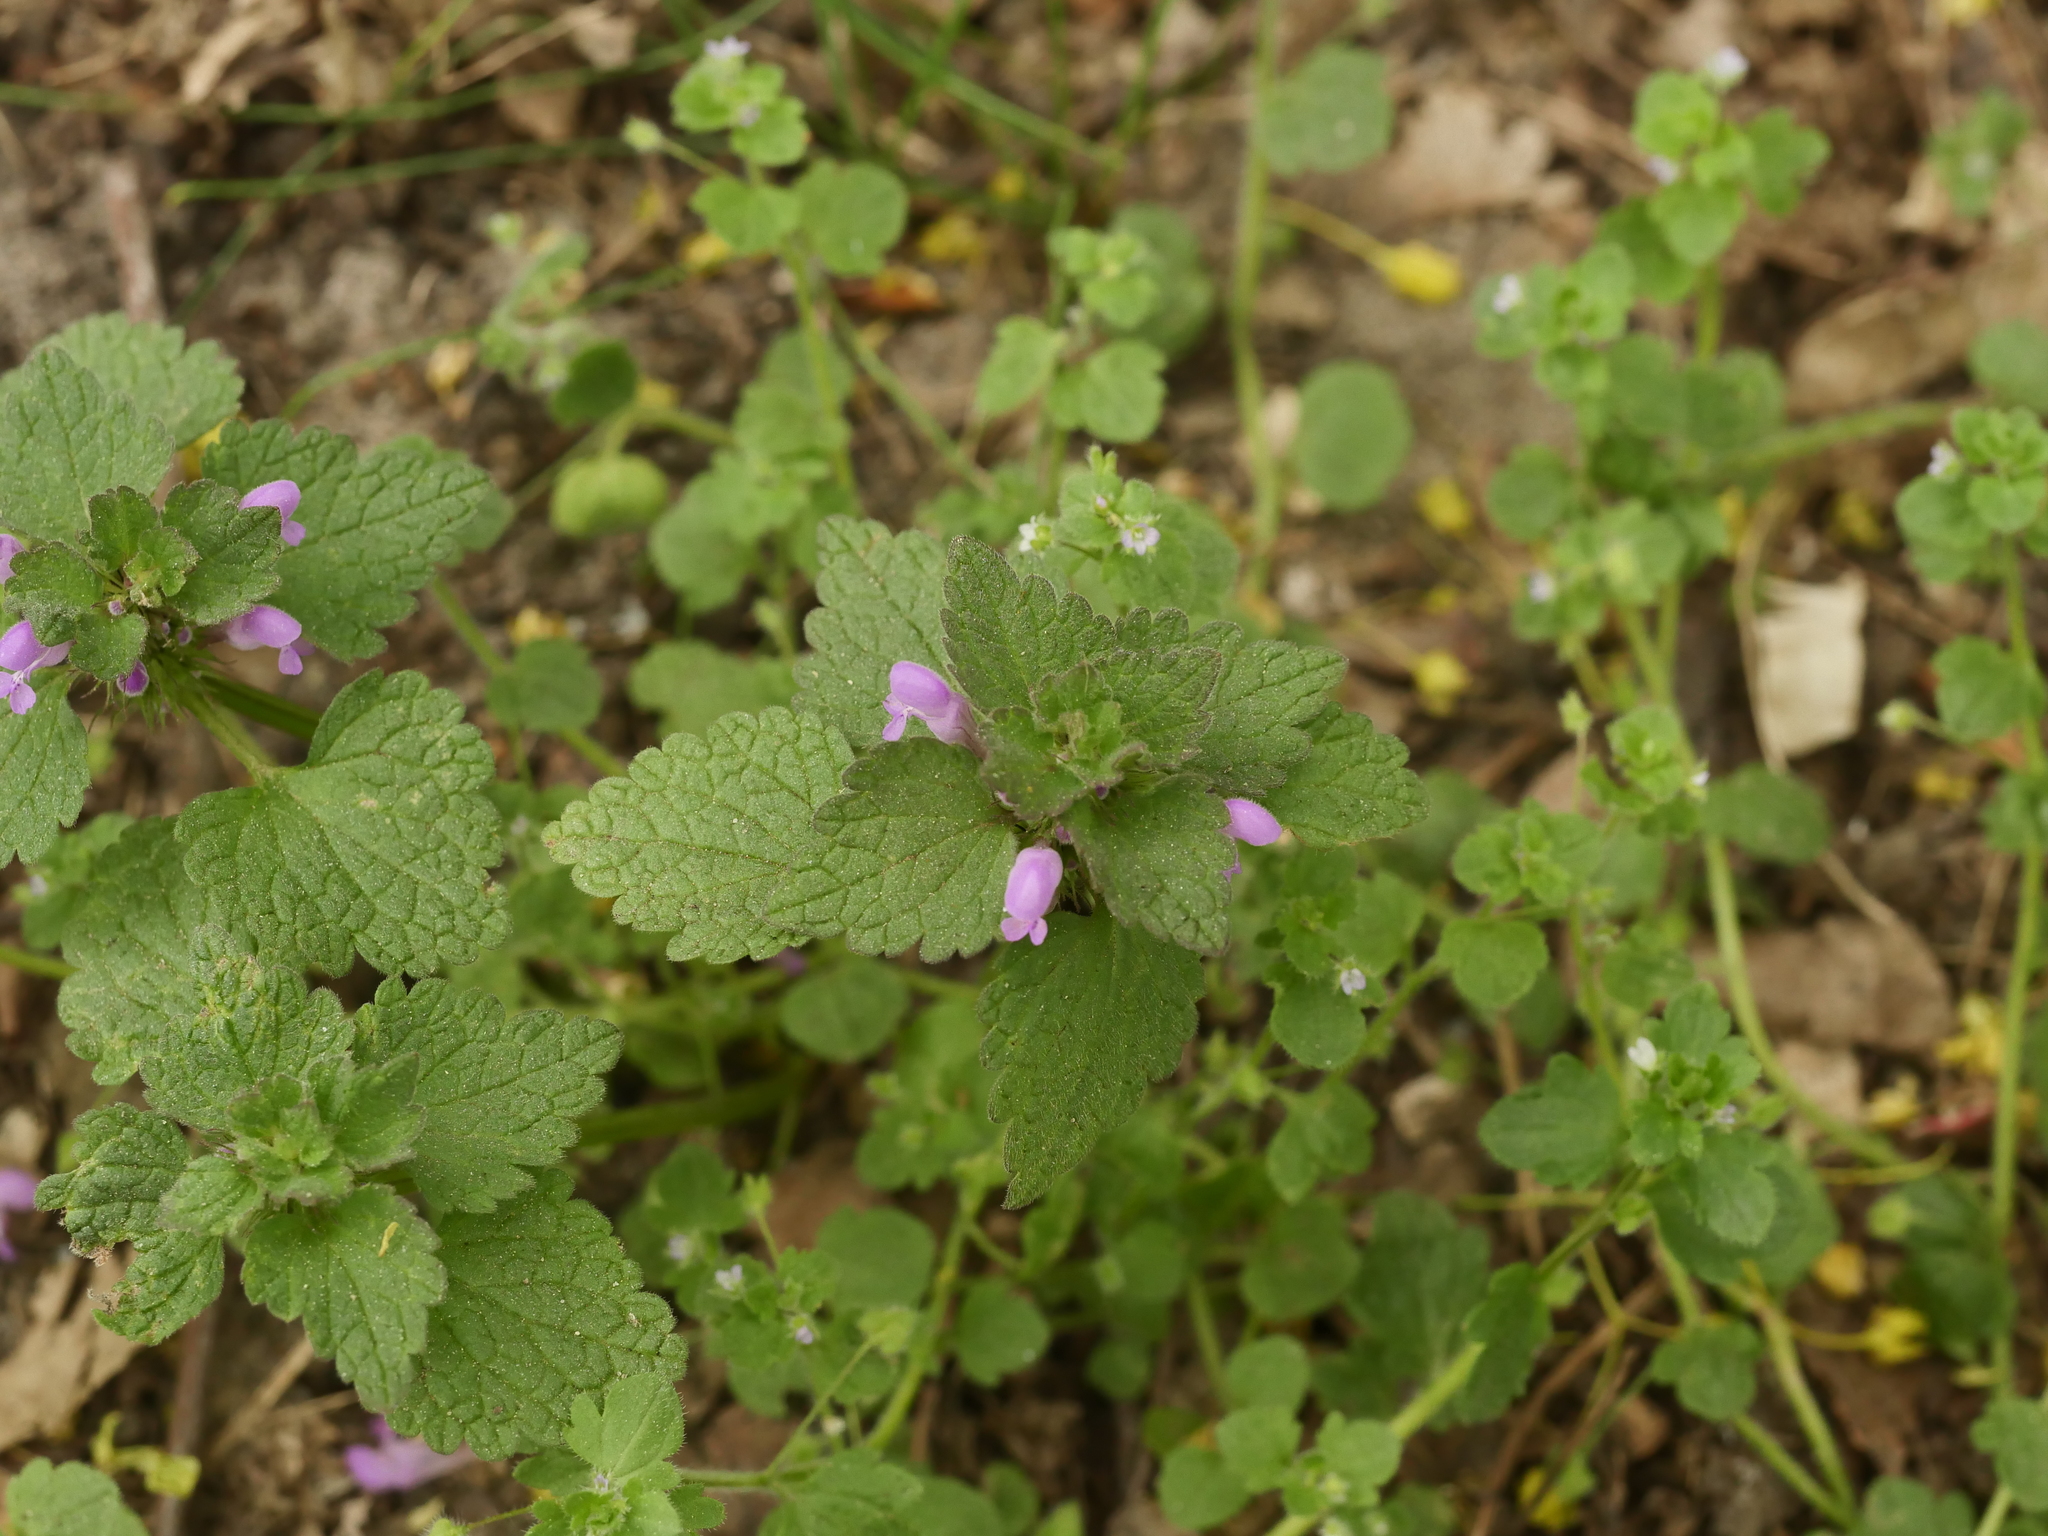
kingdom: Plantae
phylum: Tracheophyta
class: Magnoliopsida
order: Lamiales
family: Lamiaceae
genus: Lamium
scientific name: Lamium purpureum
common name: Red dead-nettle
